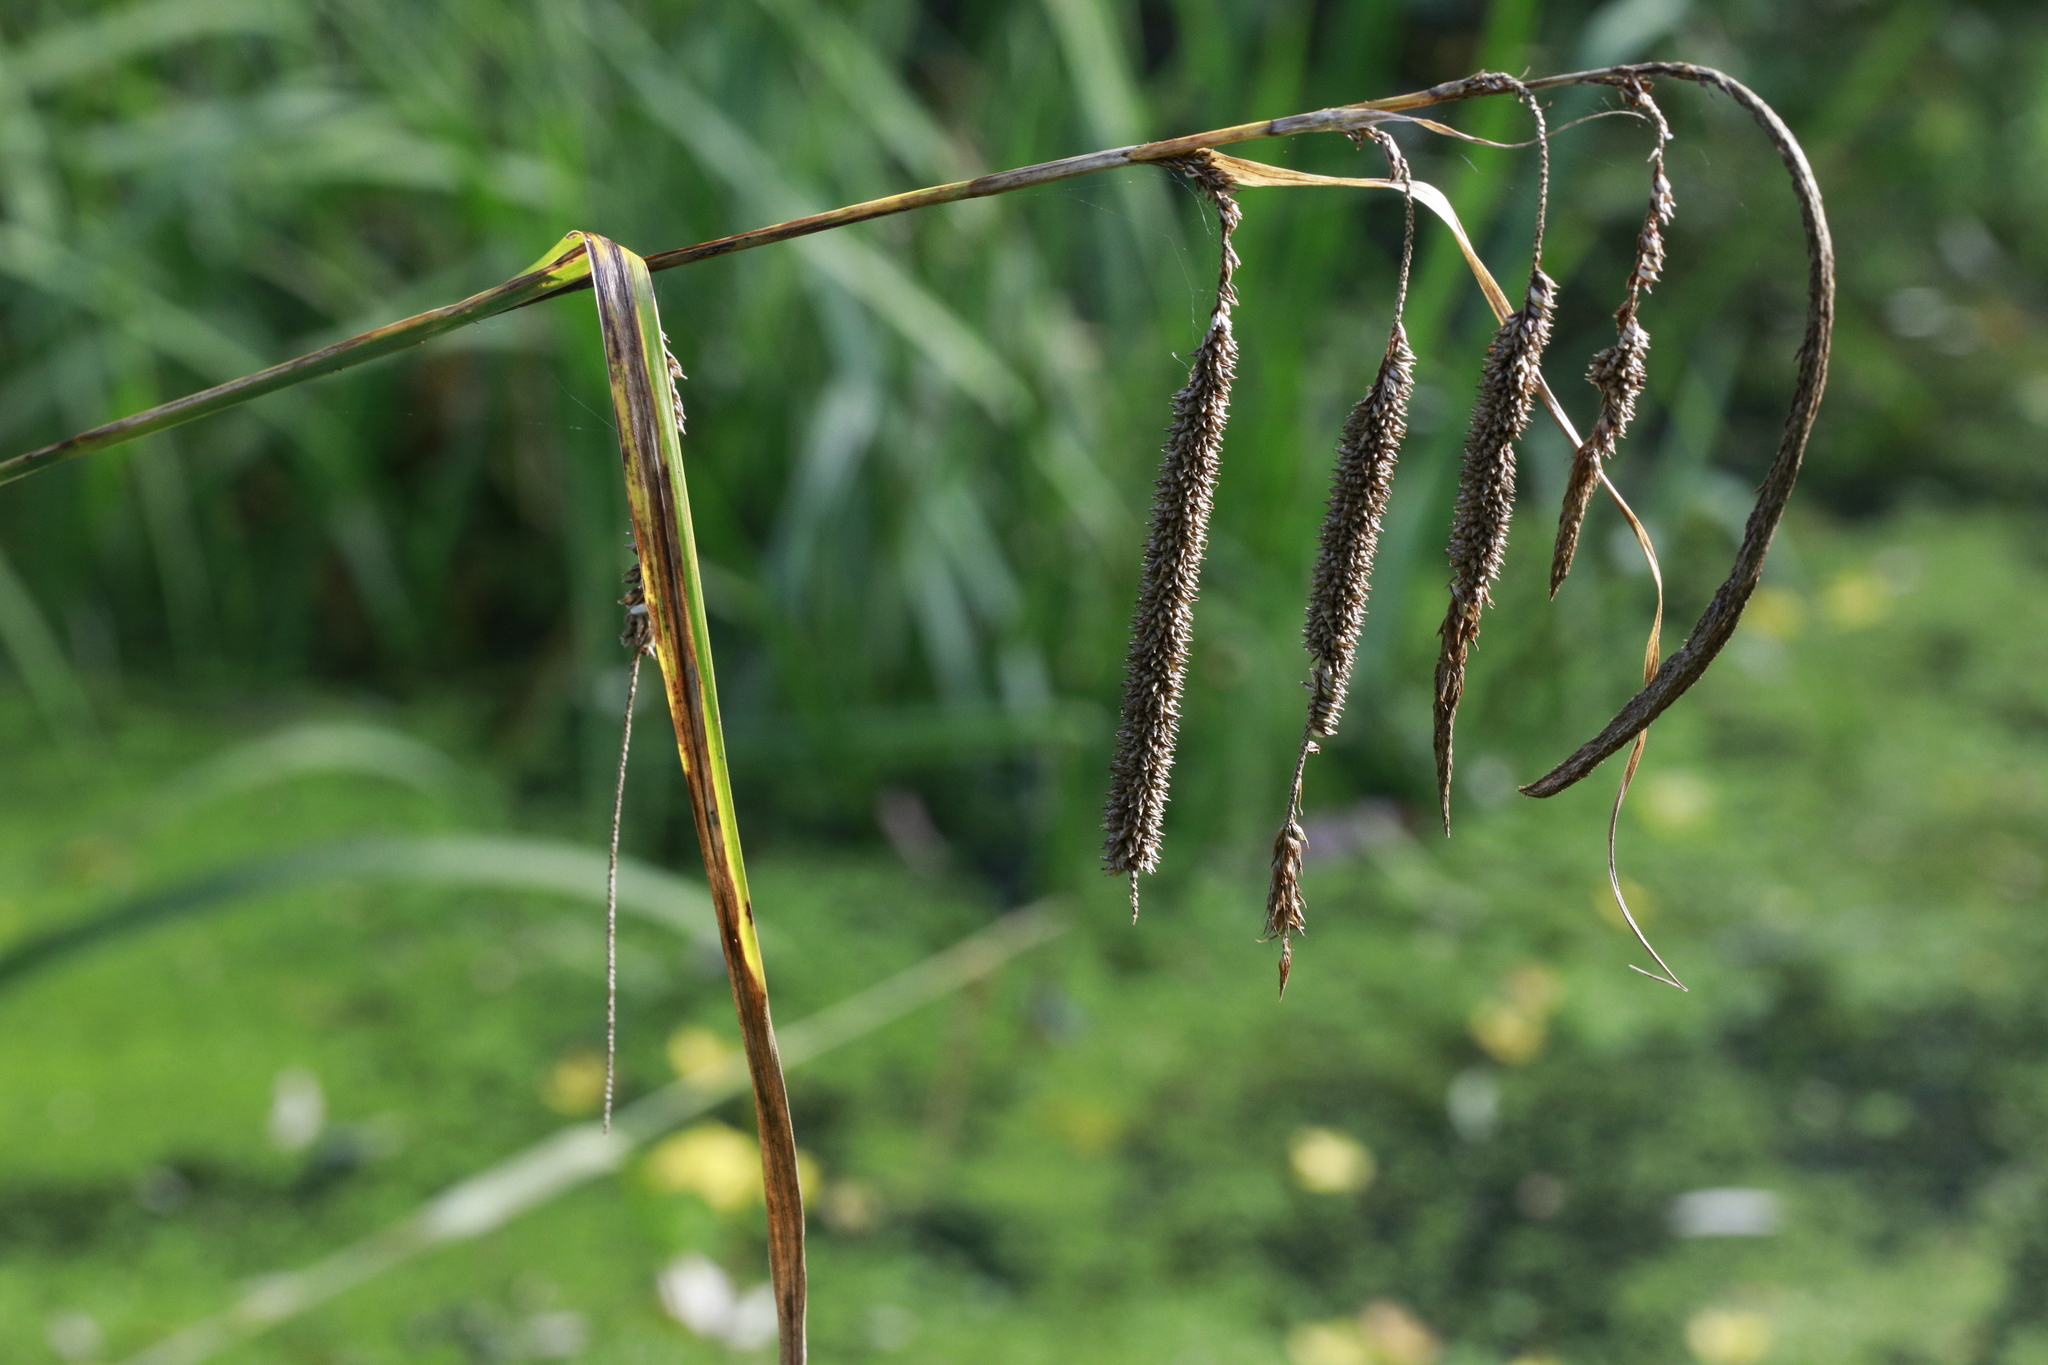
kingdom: Plantae
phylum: Tracheophyta
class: Liliopsida
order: Poales
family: Cyperaceae
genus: Carex
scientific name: Carex pendula
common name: Pendulous sedge
